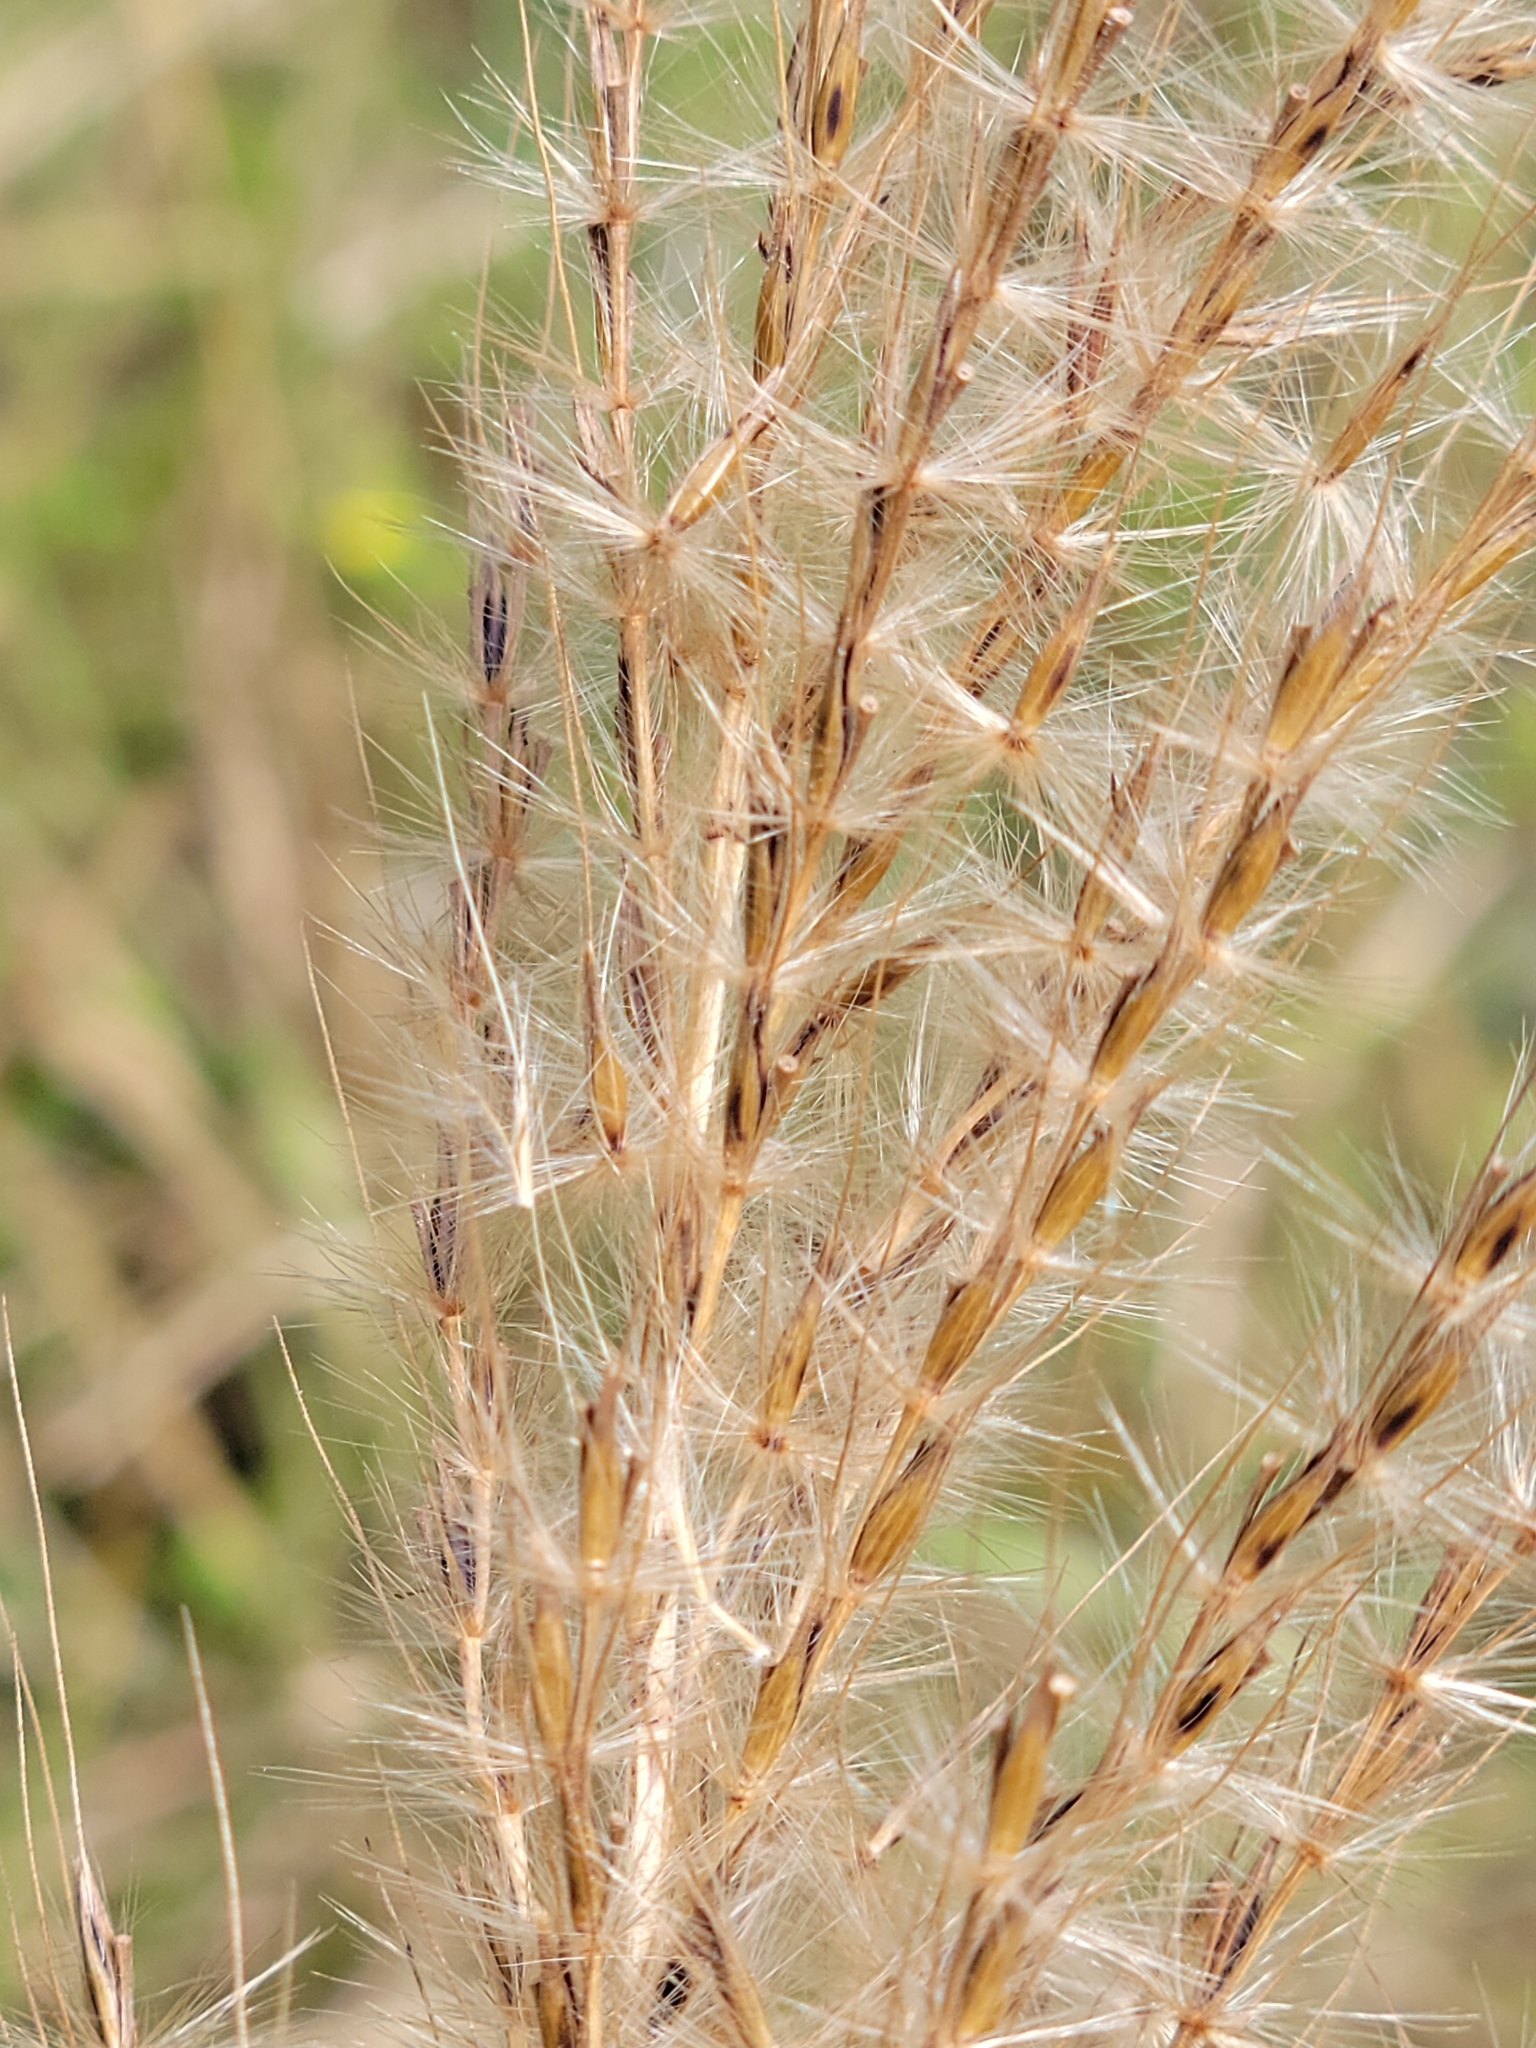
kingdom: Plantae
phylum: Tracheophyta
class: Liliopsida
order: Poales
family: Poaceae
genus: Erianthus
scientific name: Erianthus giganteus
